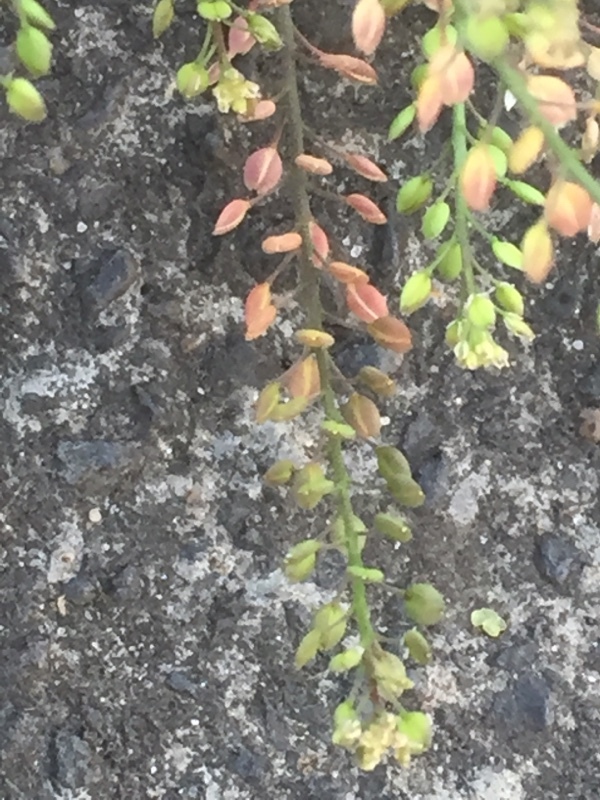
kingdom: Plantae
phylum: Tracheophyta
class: Magnoliopsida
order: Brassicales
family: Brassicaceae
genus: Lepidium
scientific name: Lepidium ruderale
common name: Narrow-leaved pepperwort
